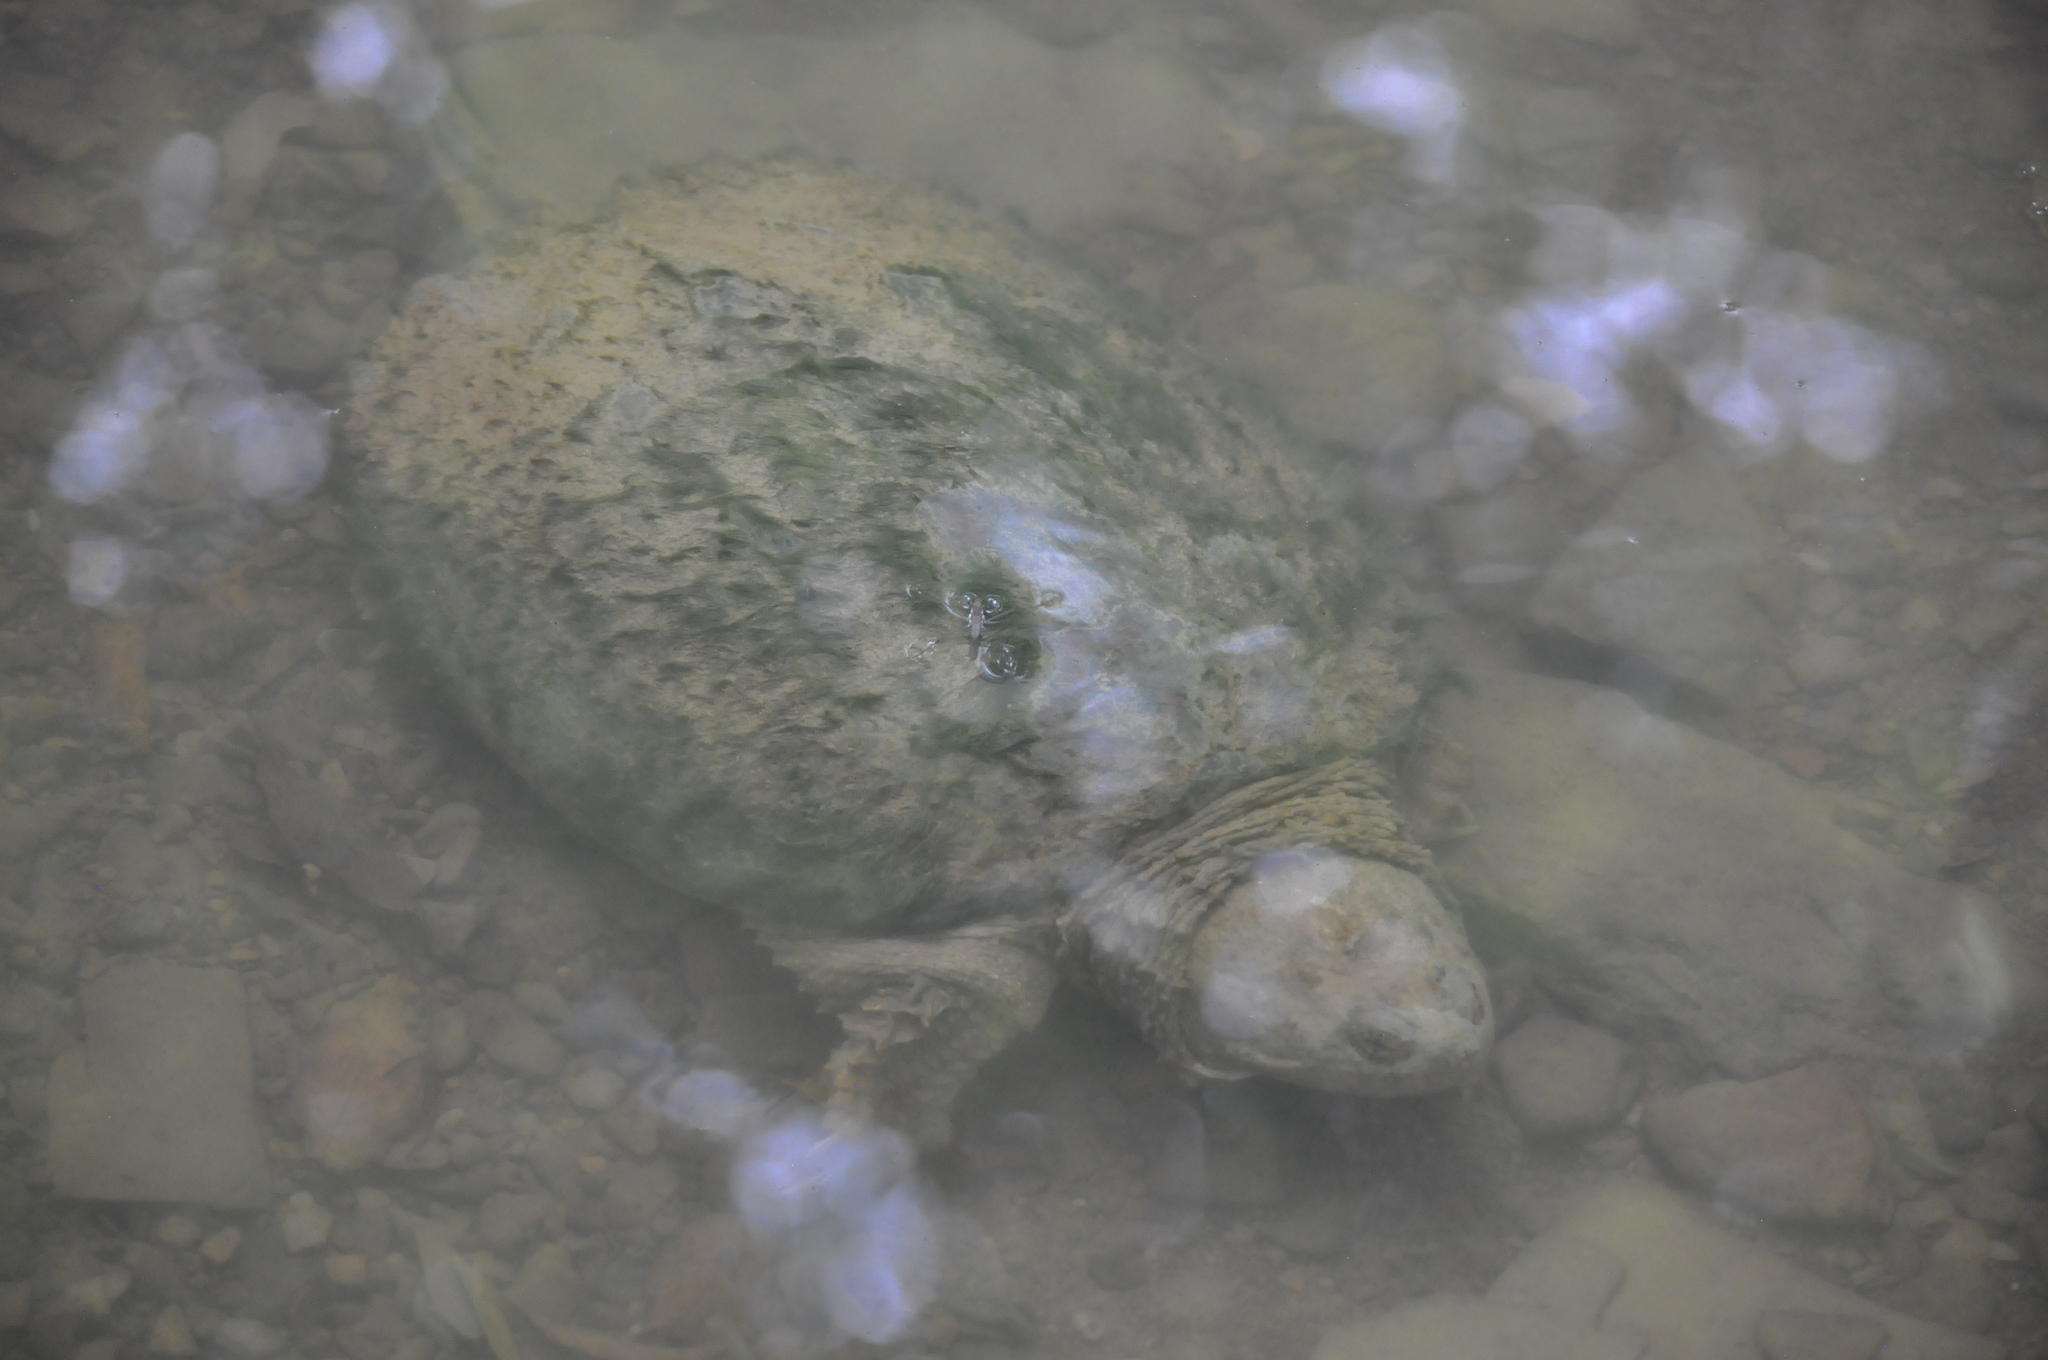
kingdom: Animalia
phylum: Chordata
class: Testudines
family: Chelydridae
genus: Chelydra
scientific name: Chelydra serpentina
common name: Common snapping turtle
